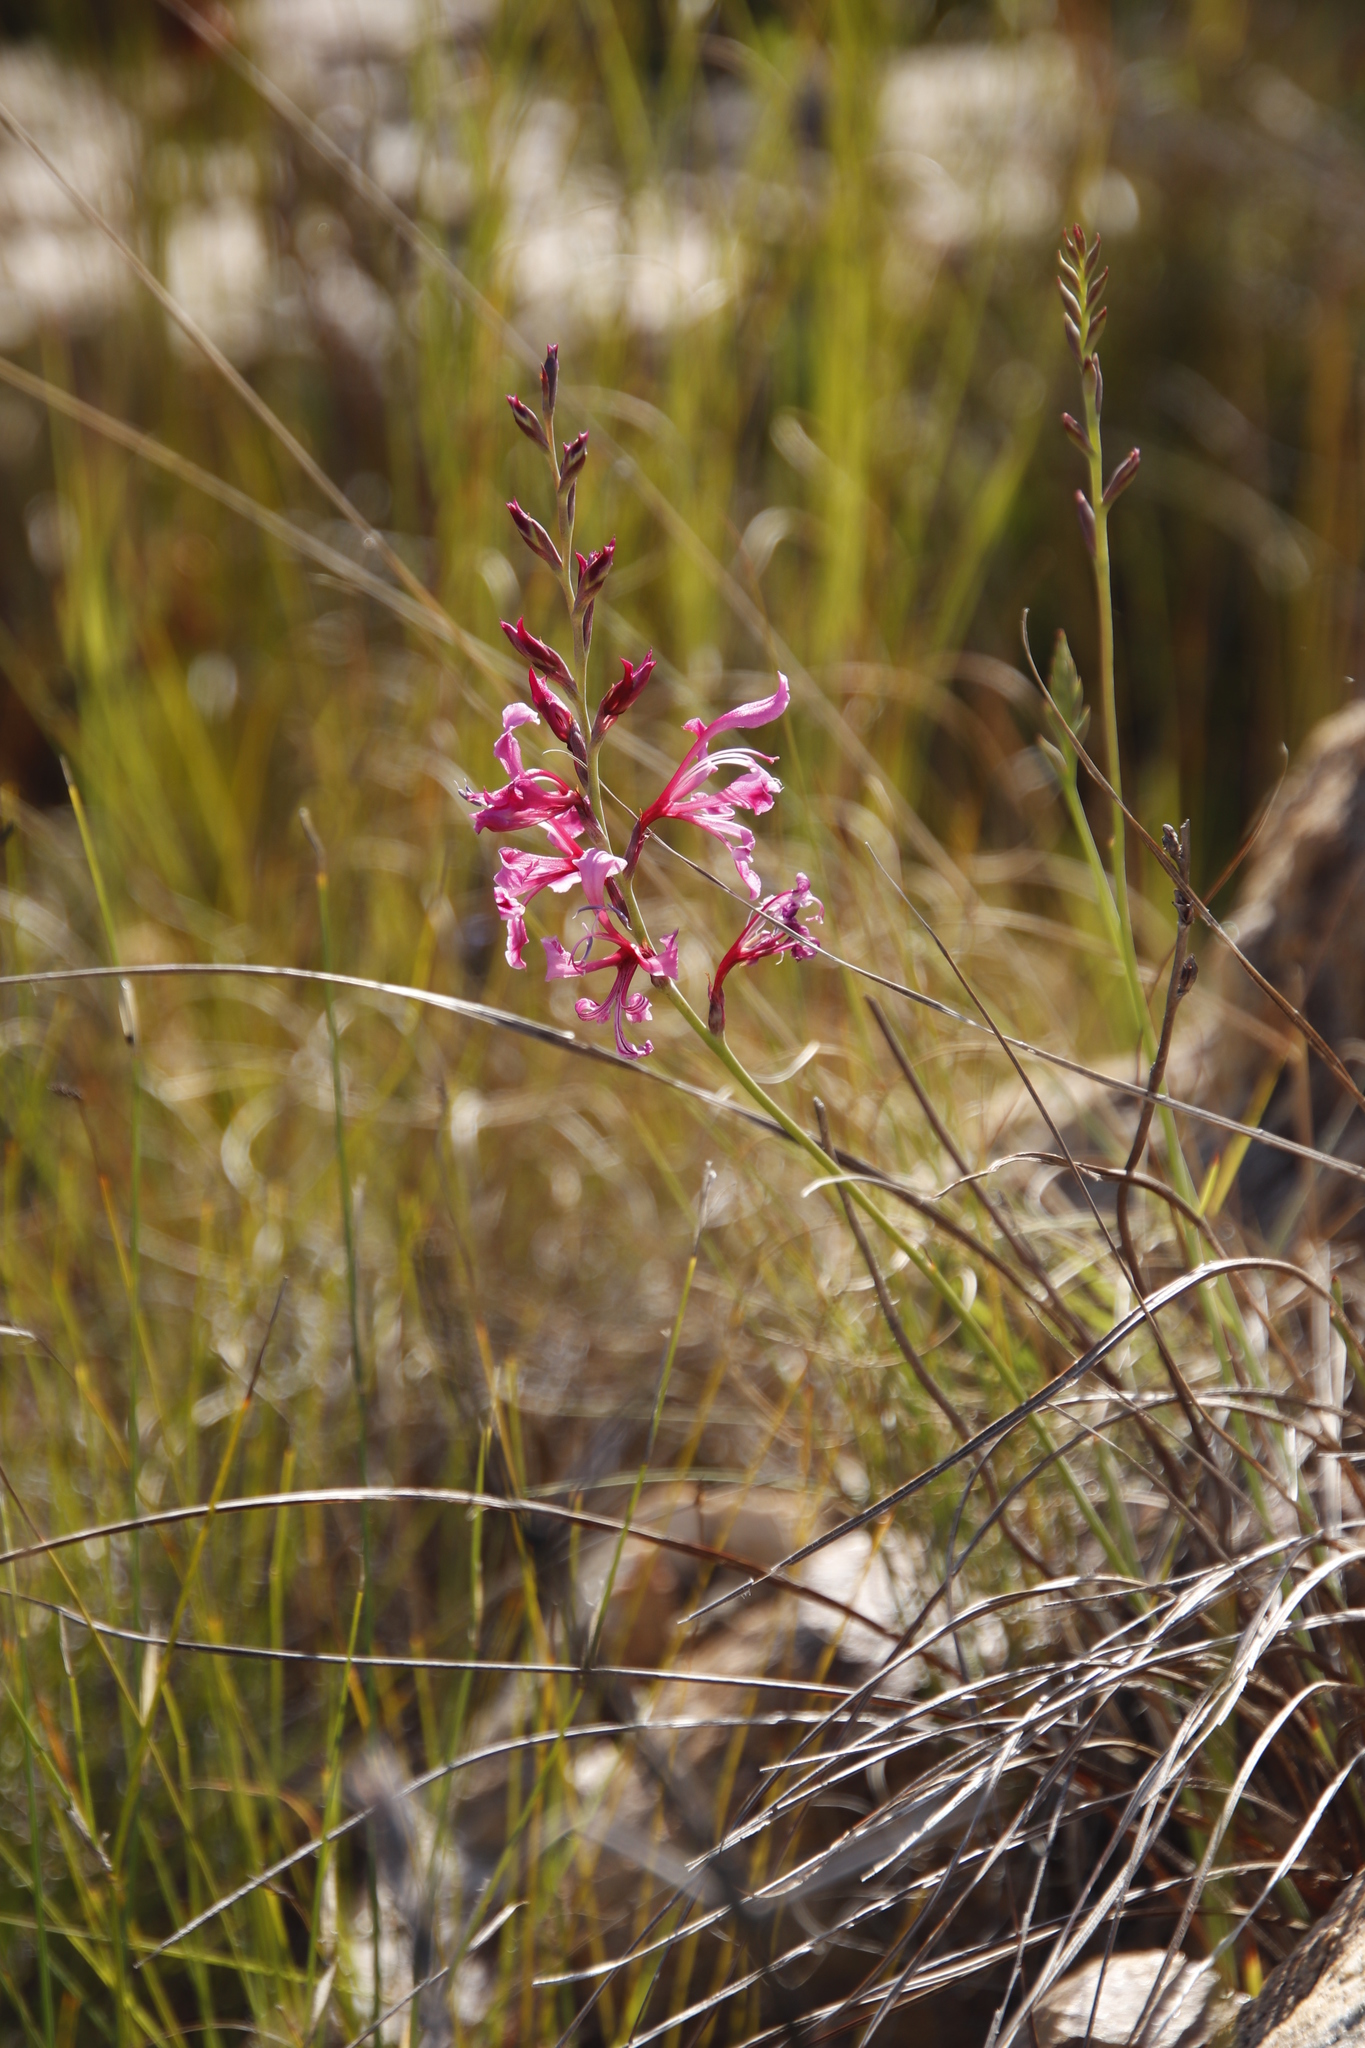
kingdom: Plantae
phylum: Tracheophyta
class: Liliopsida
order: Asparagales
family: Iridaceae
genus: Tritoniopsis
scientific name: Tritoniopsis lata
